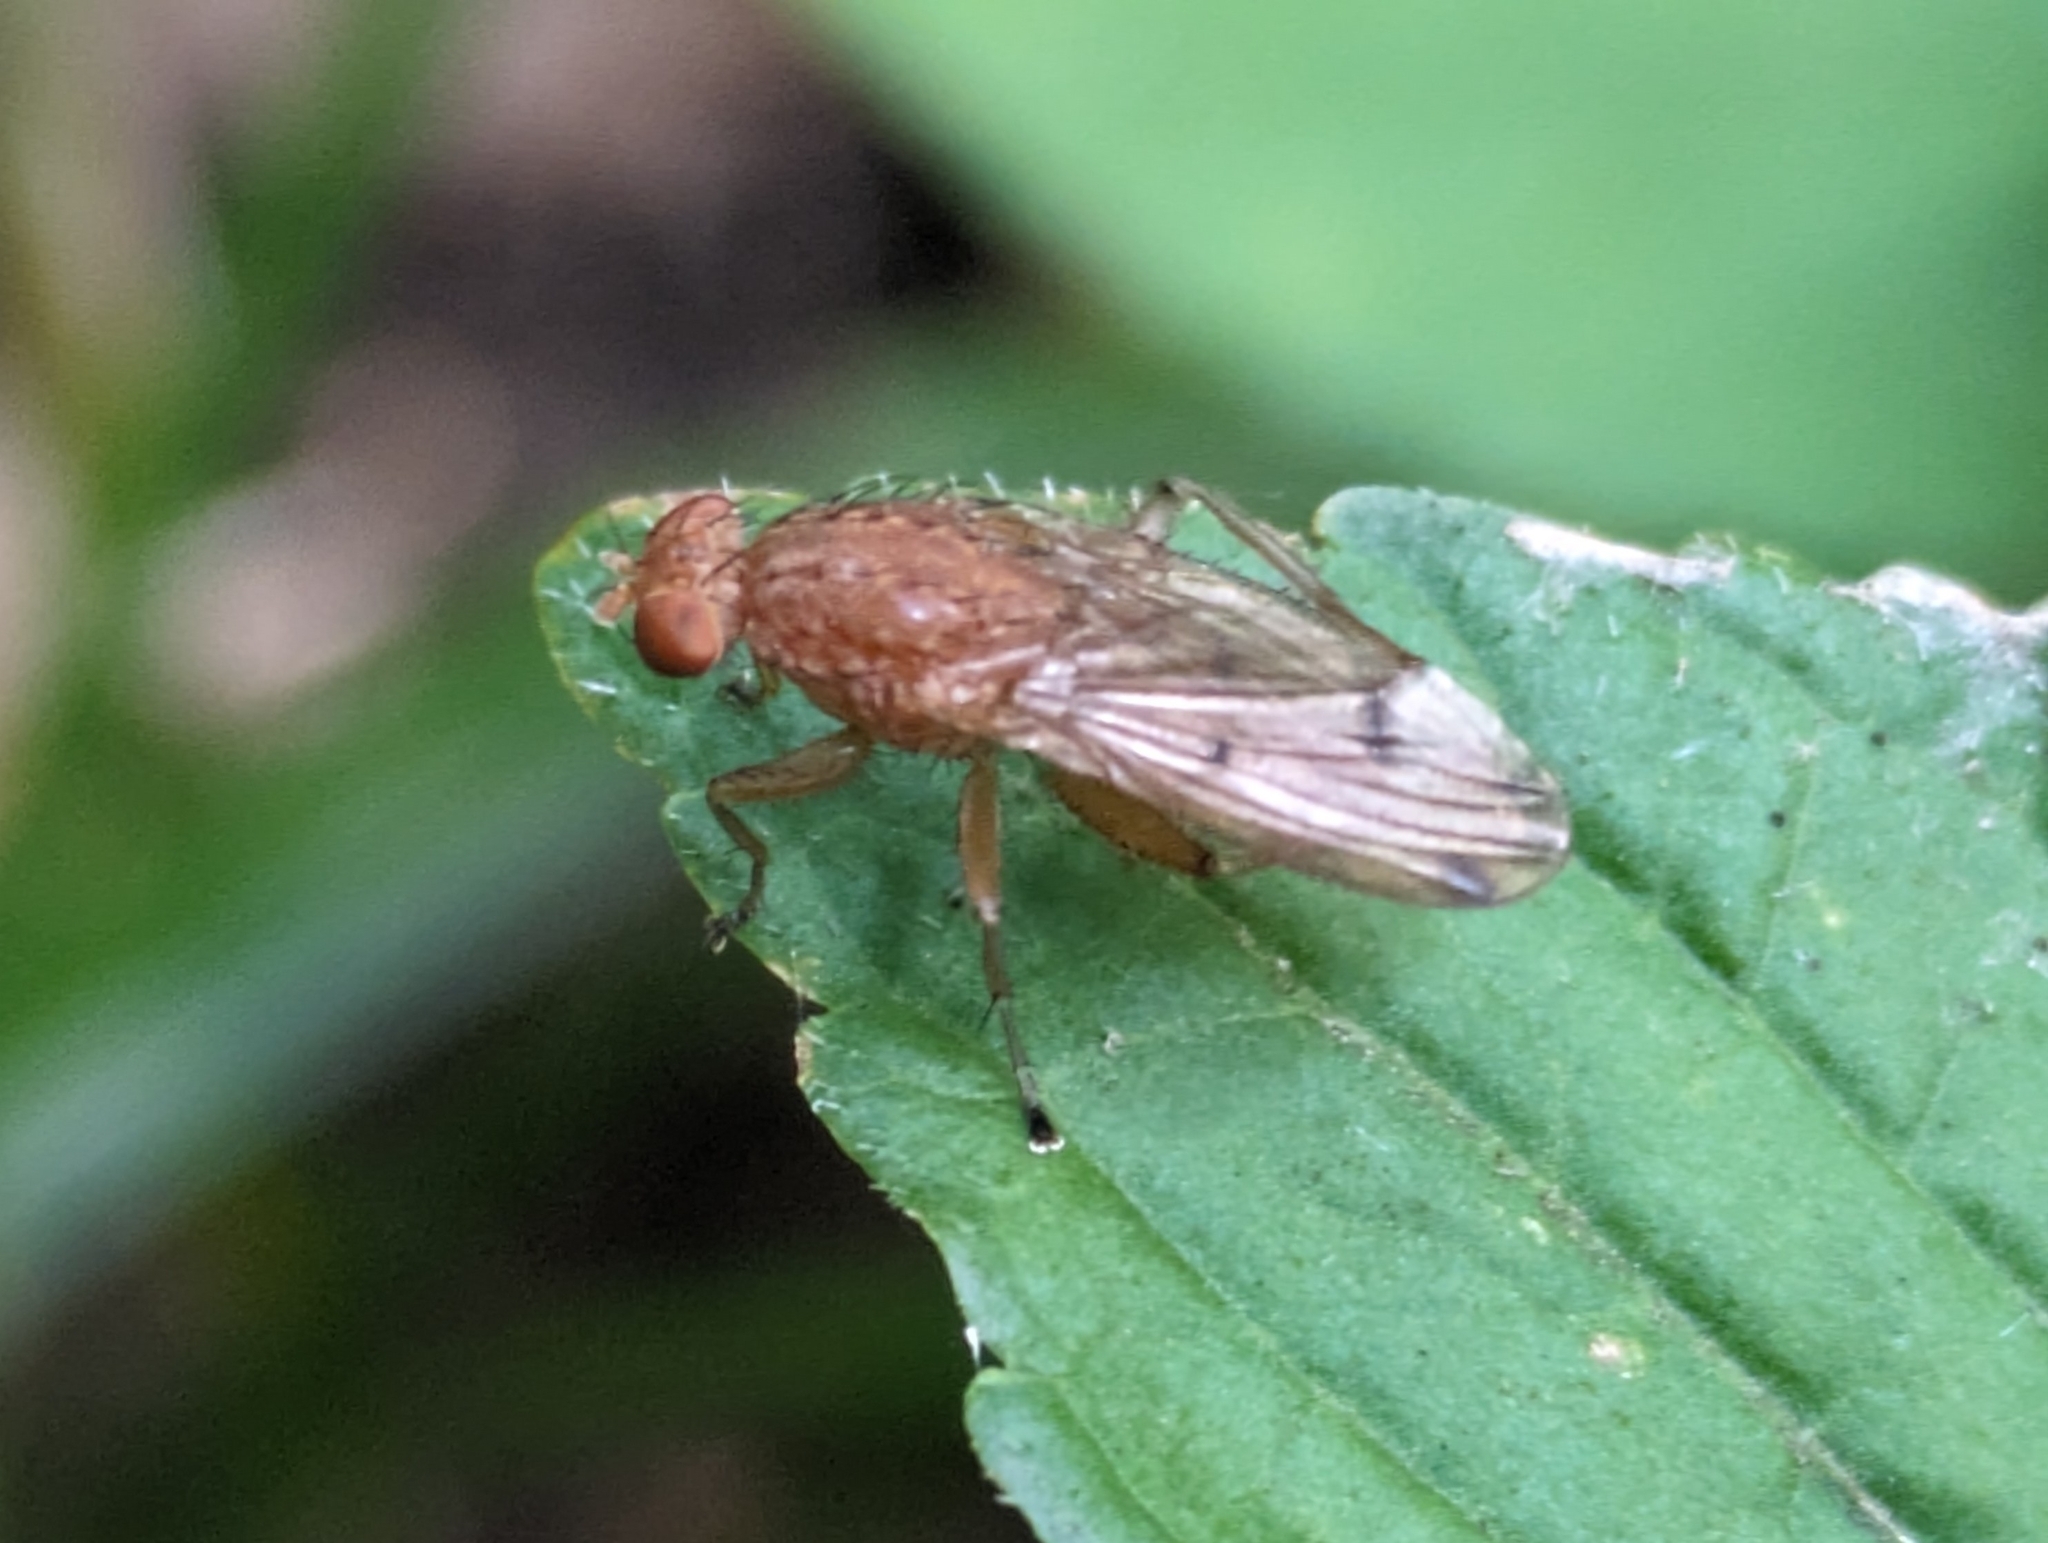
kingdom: Animalia
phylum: Arthropoda
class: Insecta
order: Diptera
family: Heleomyzidae
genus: Suillia
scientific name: Suillia quinquepunctata
